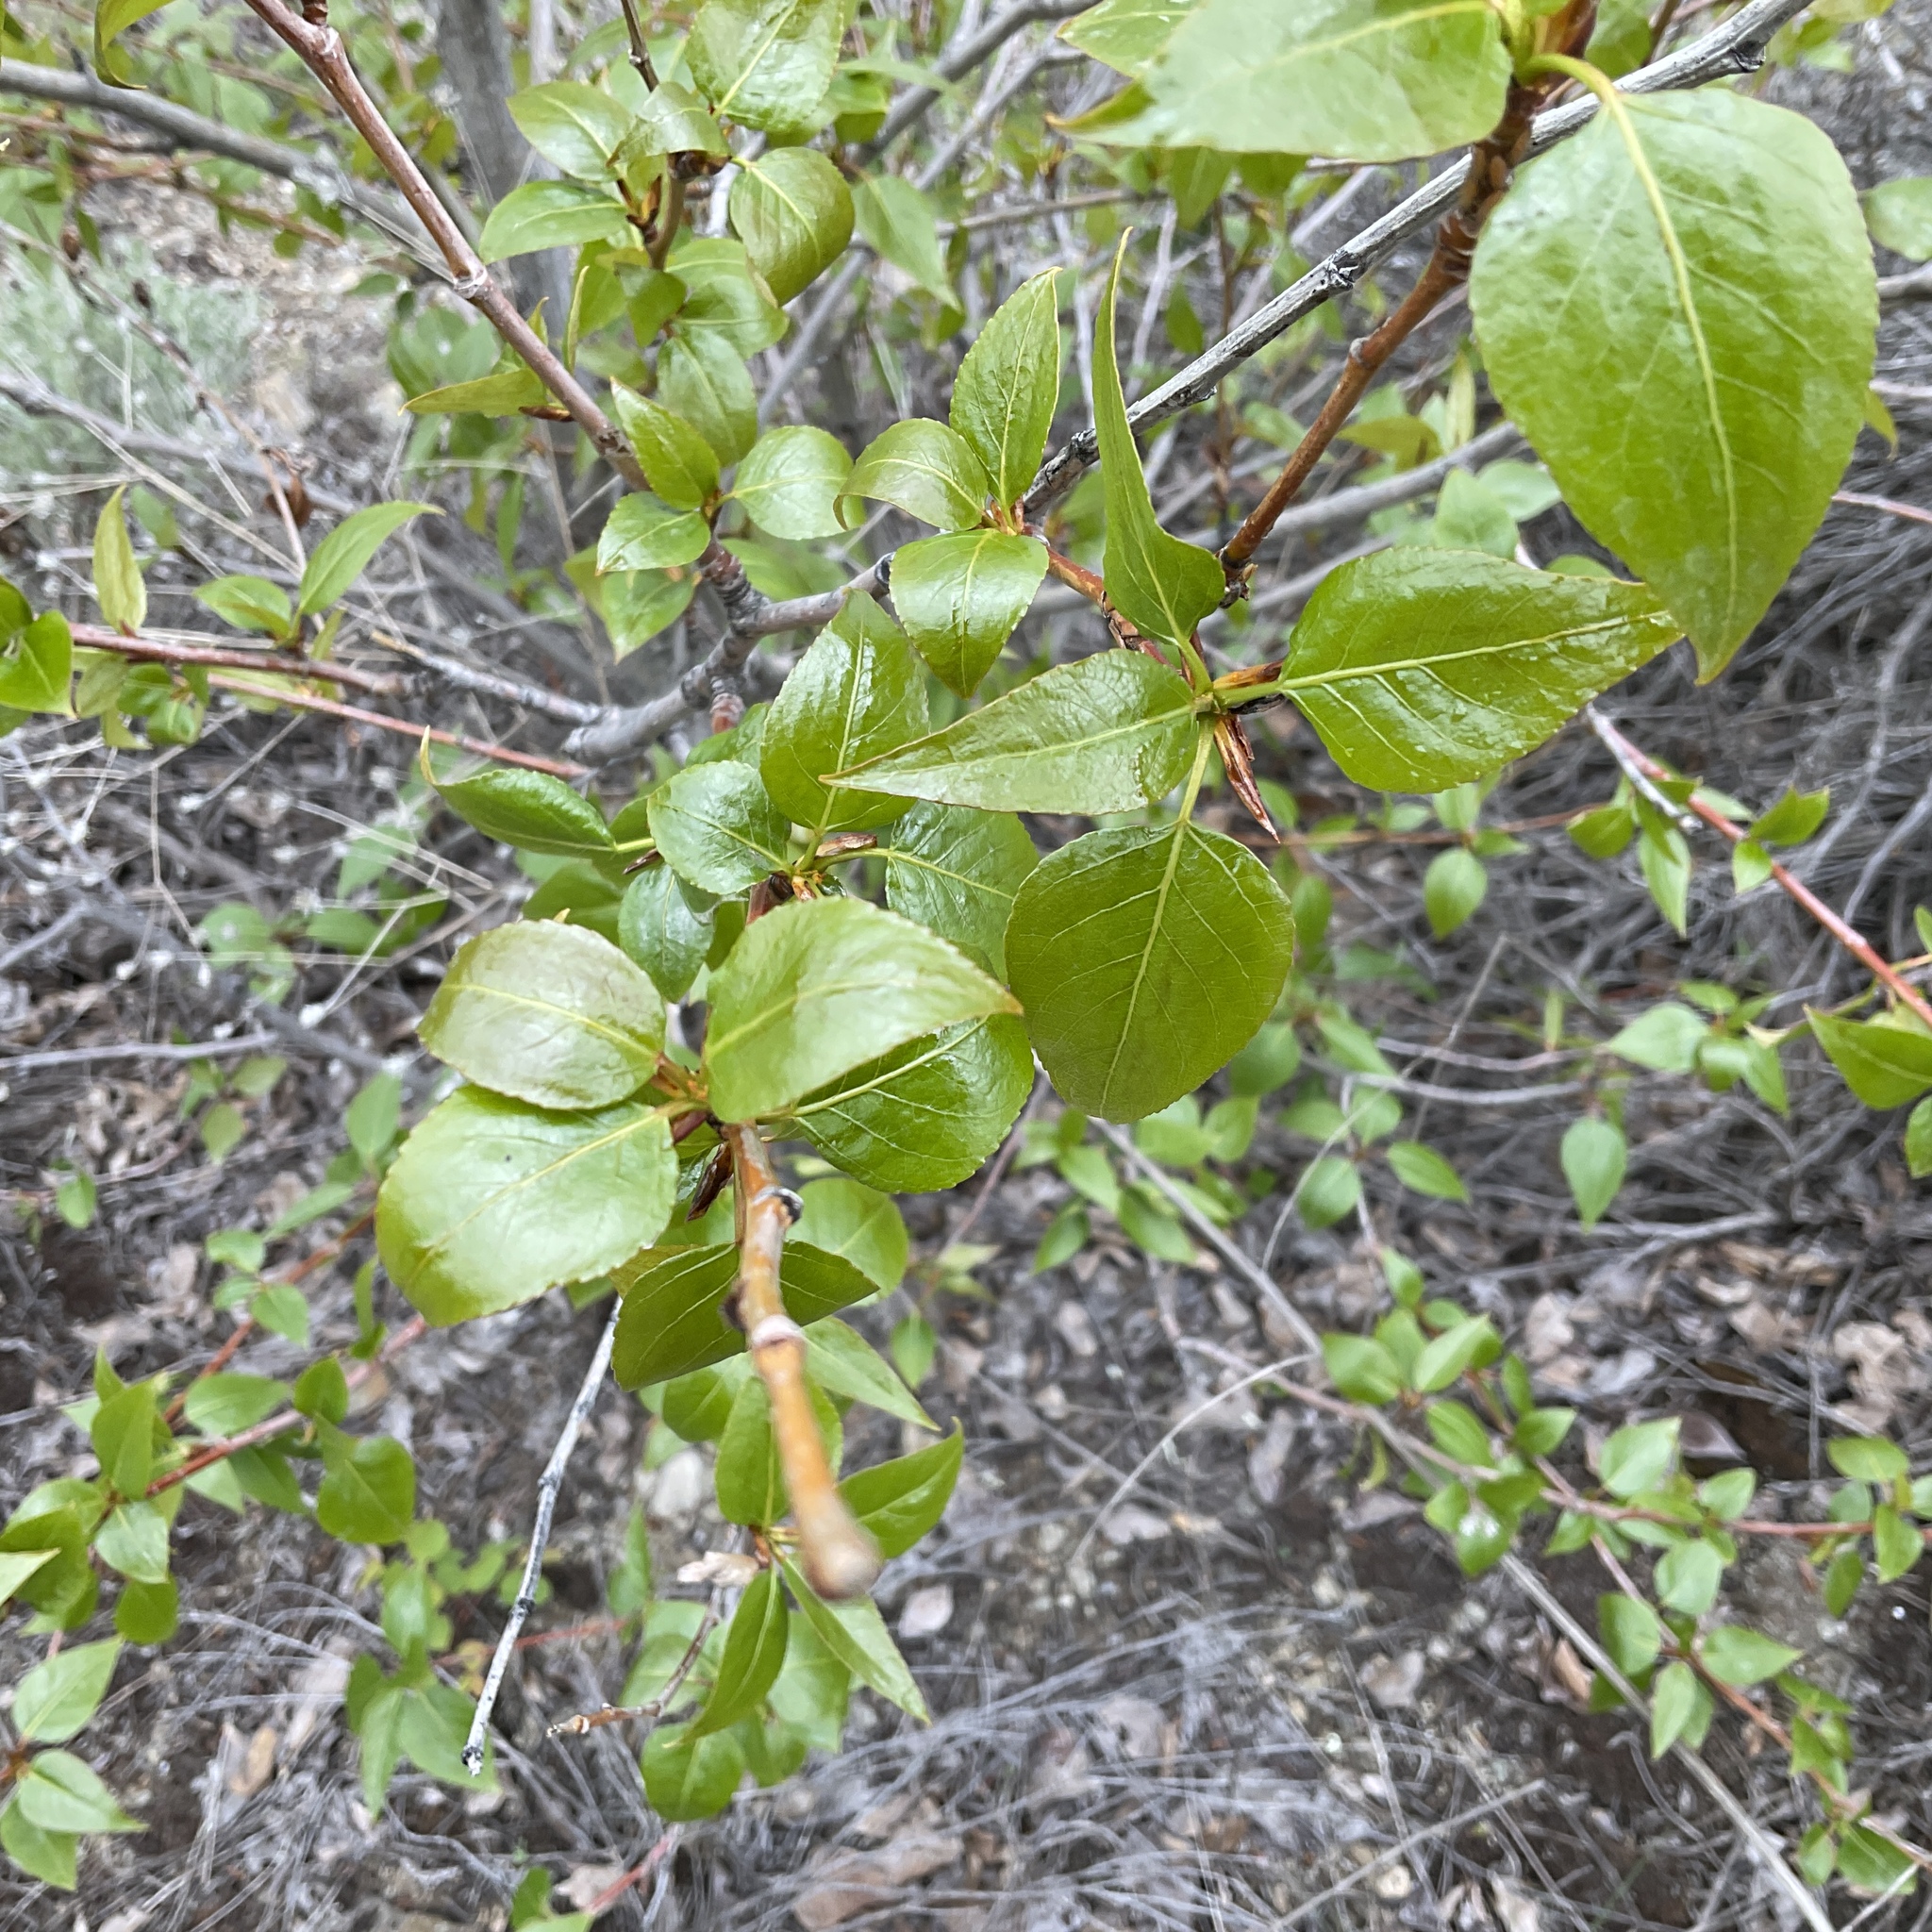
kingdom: Plantae
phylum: Tracheophyta
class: Magnoliopsida
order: Malpighiales
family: Salicaceae
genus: Populus
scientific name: Populus trichocarpa
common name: Black cottonwood
